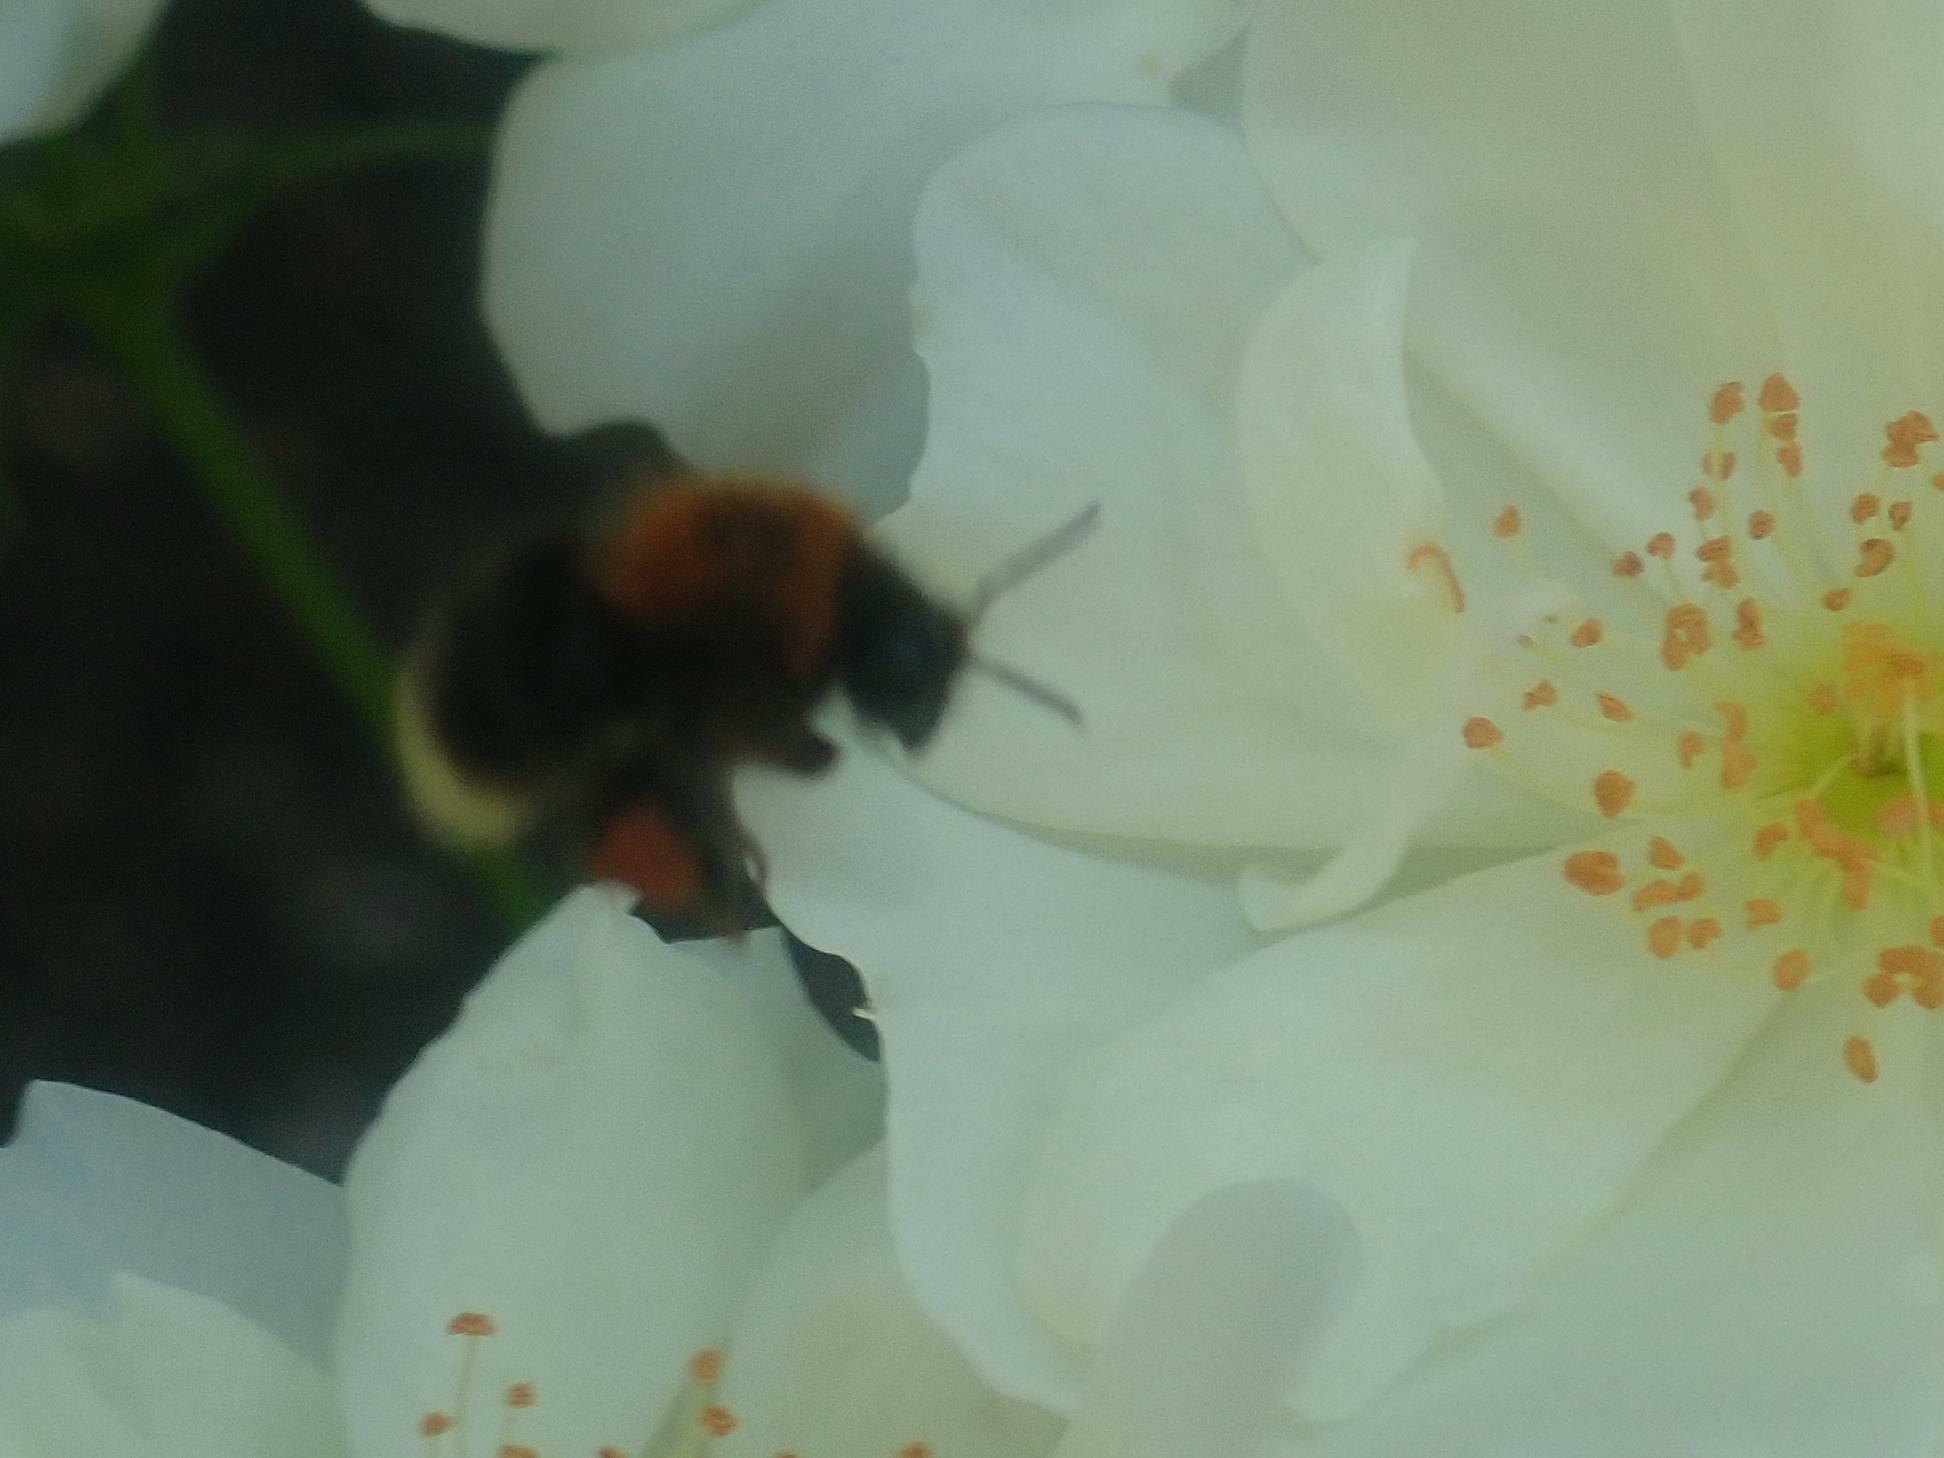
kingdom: Animalia
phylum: Arthropoda
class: Insecta
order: Hymenoptera
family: Apidae
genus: Bombus
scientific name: Bombus hypnorum
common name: New garden bumblebee
